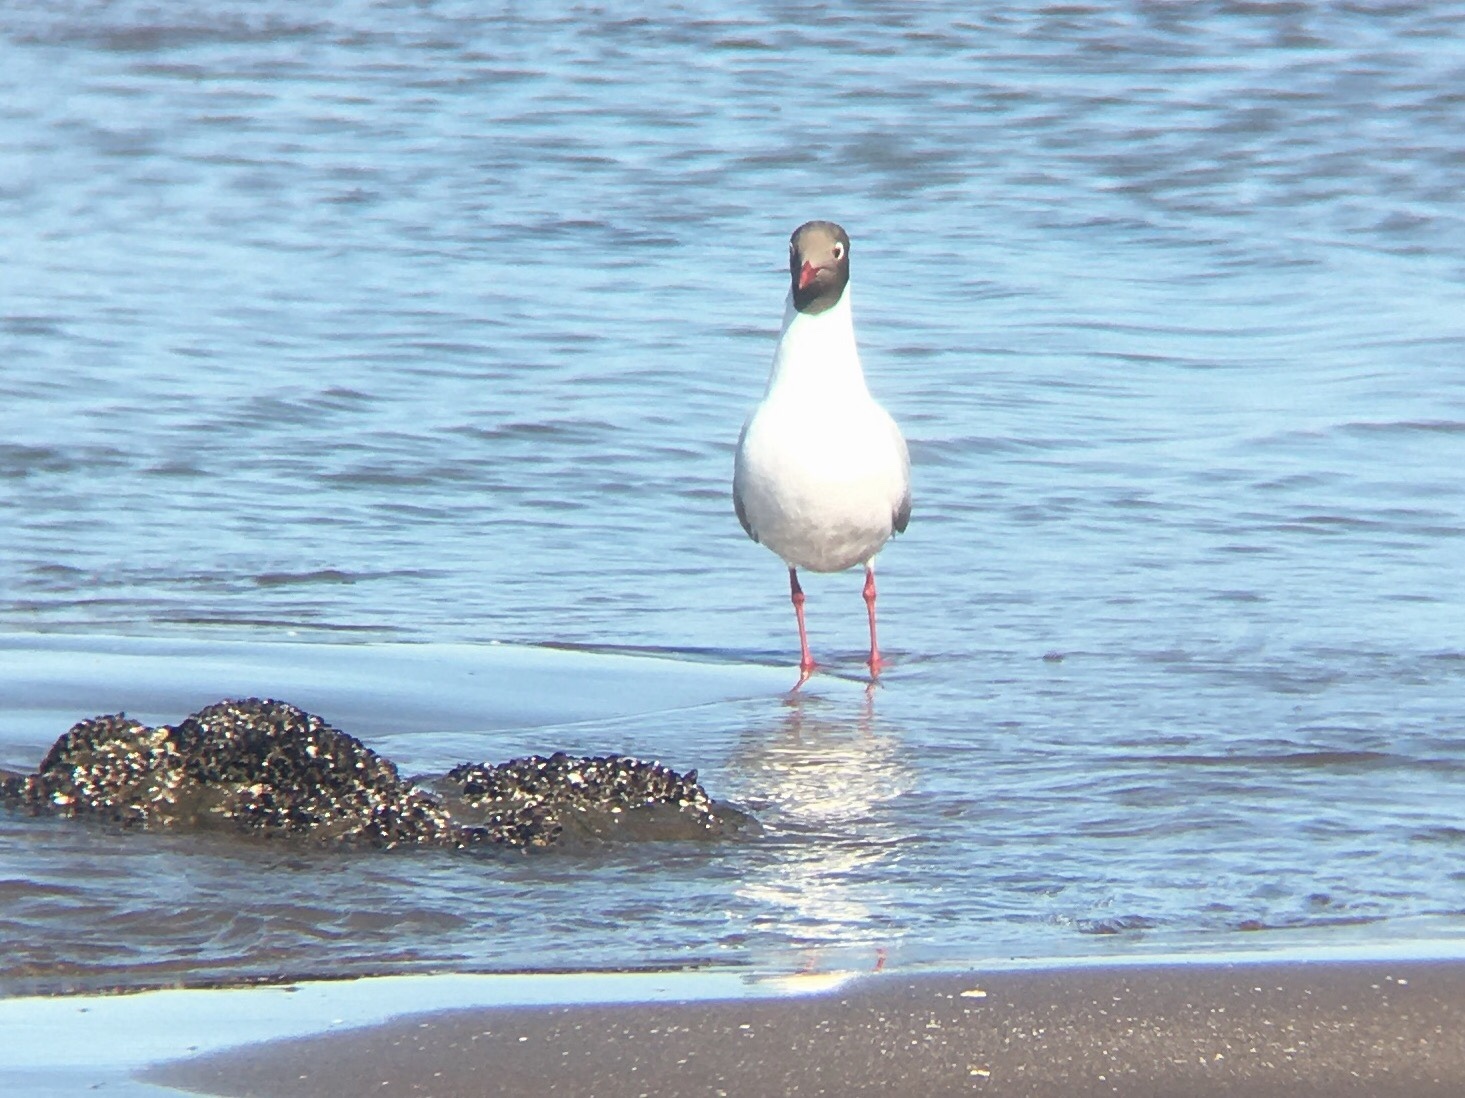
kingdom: Animalia
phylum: Chordata
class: Aves
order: Charadriiformes
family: Laridae
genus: Chroicocephalus
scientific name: Chroicocephalus maculipennis
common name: Brown-hooded gull
